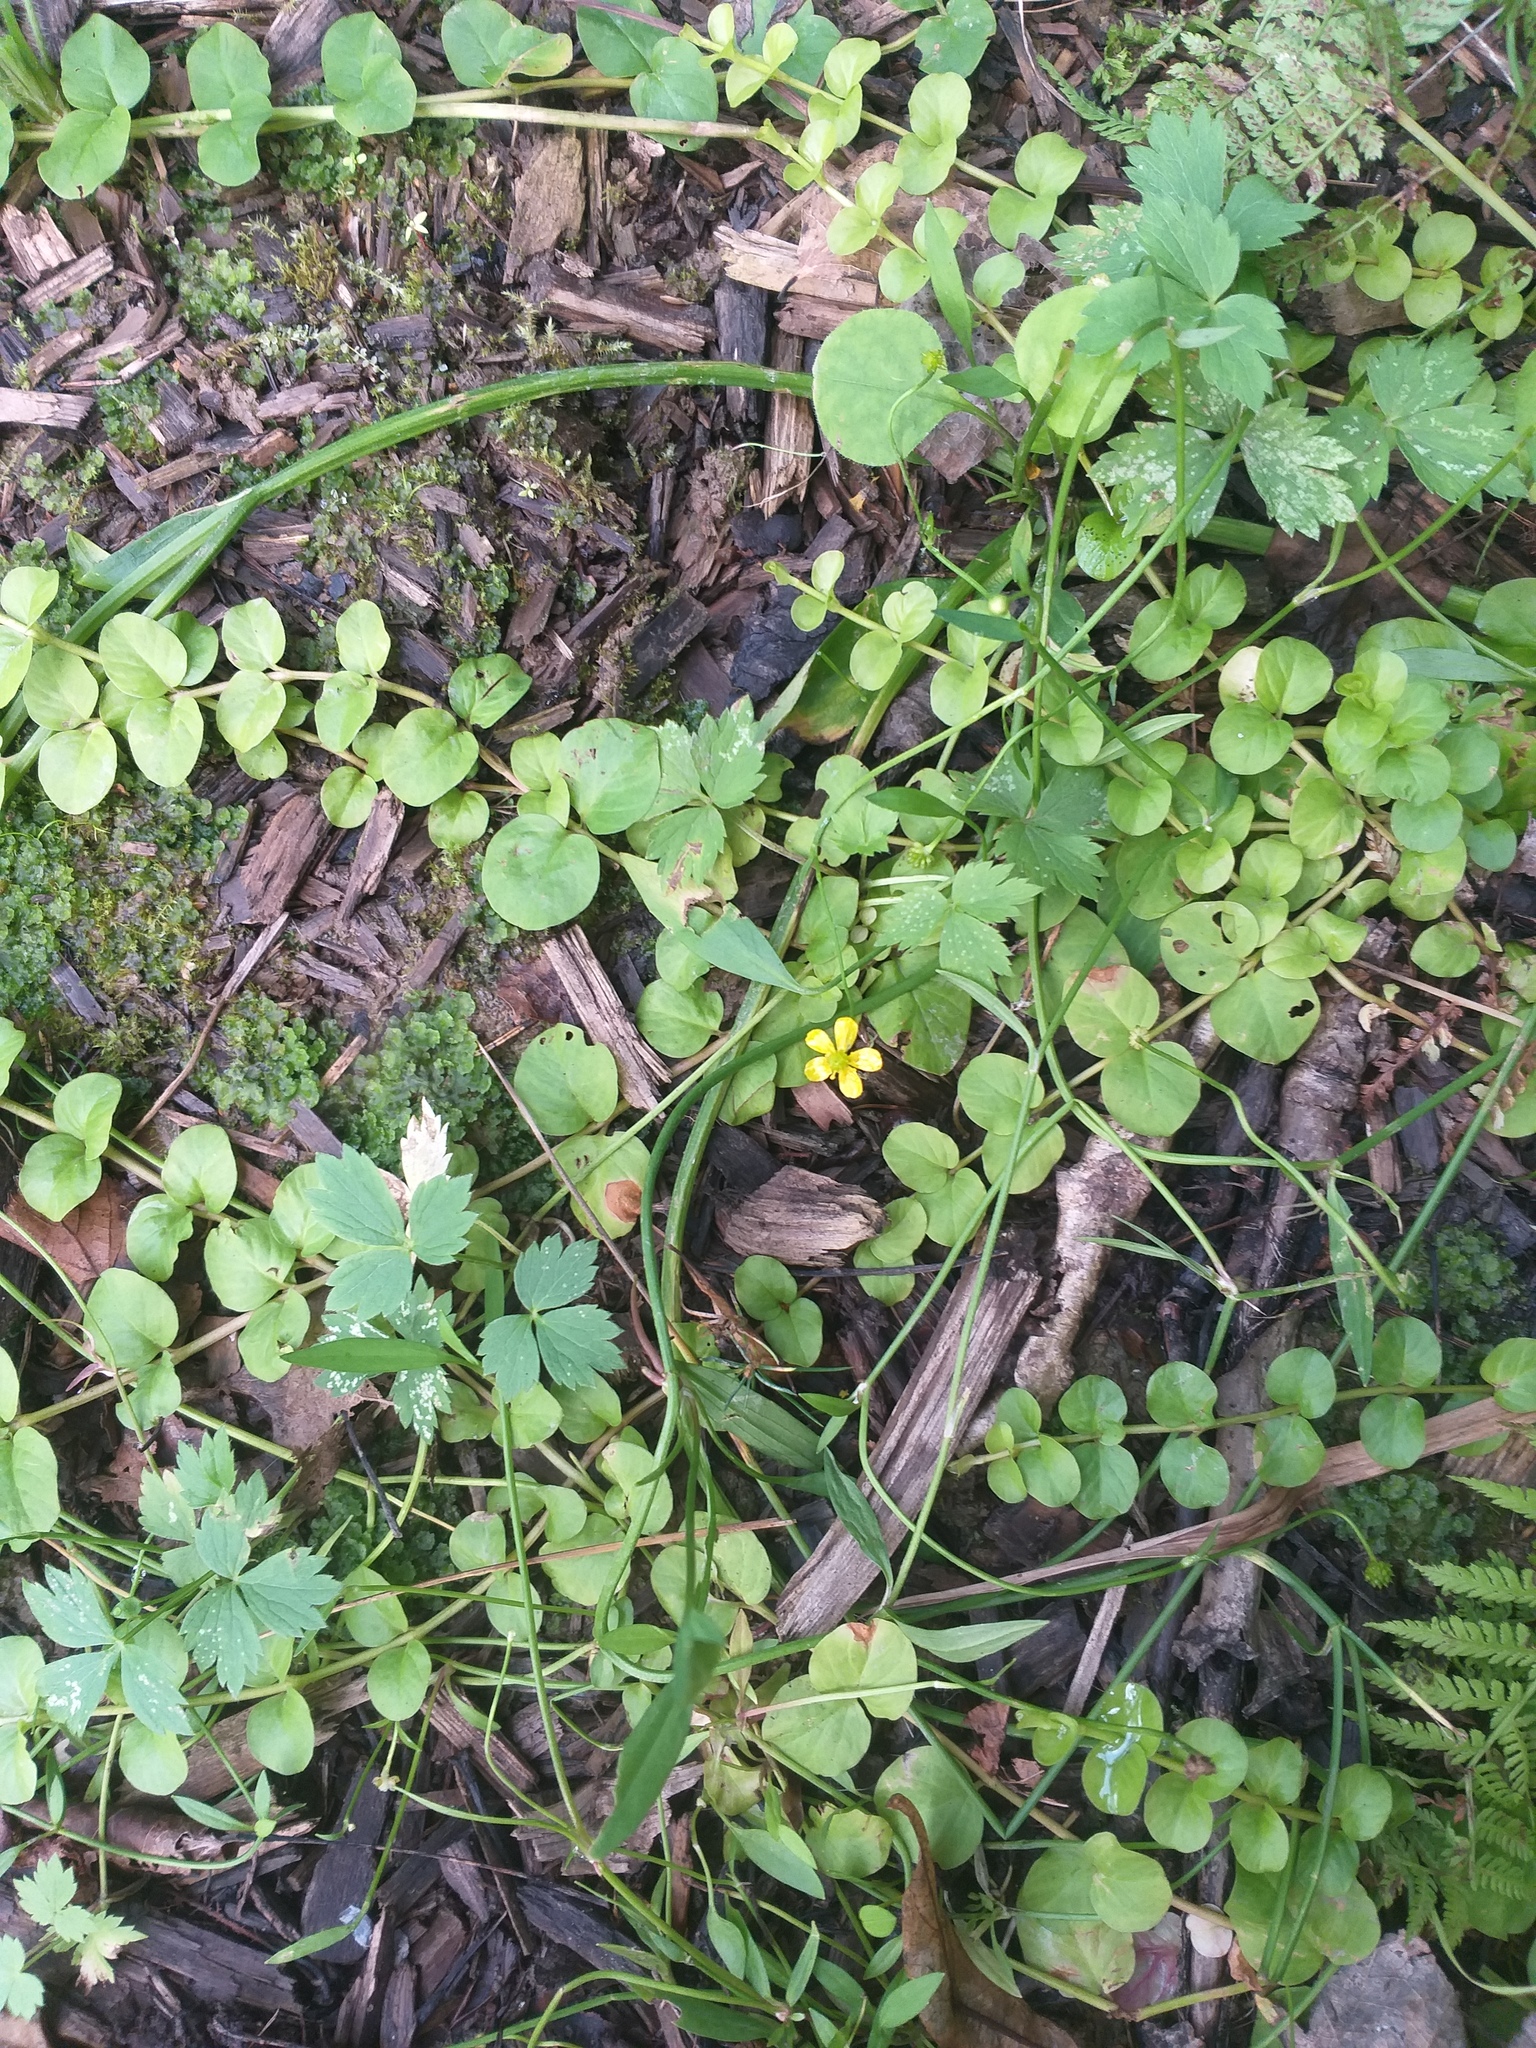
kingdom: Plantae
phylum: Tracheophyta
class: Magnoliopsida
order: Ranunculales
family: Ranunculaceae
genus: Ranunculus
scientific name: Ranunculus flammula
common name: Lesser spearwort
